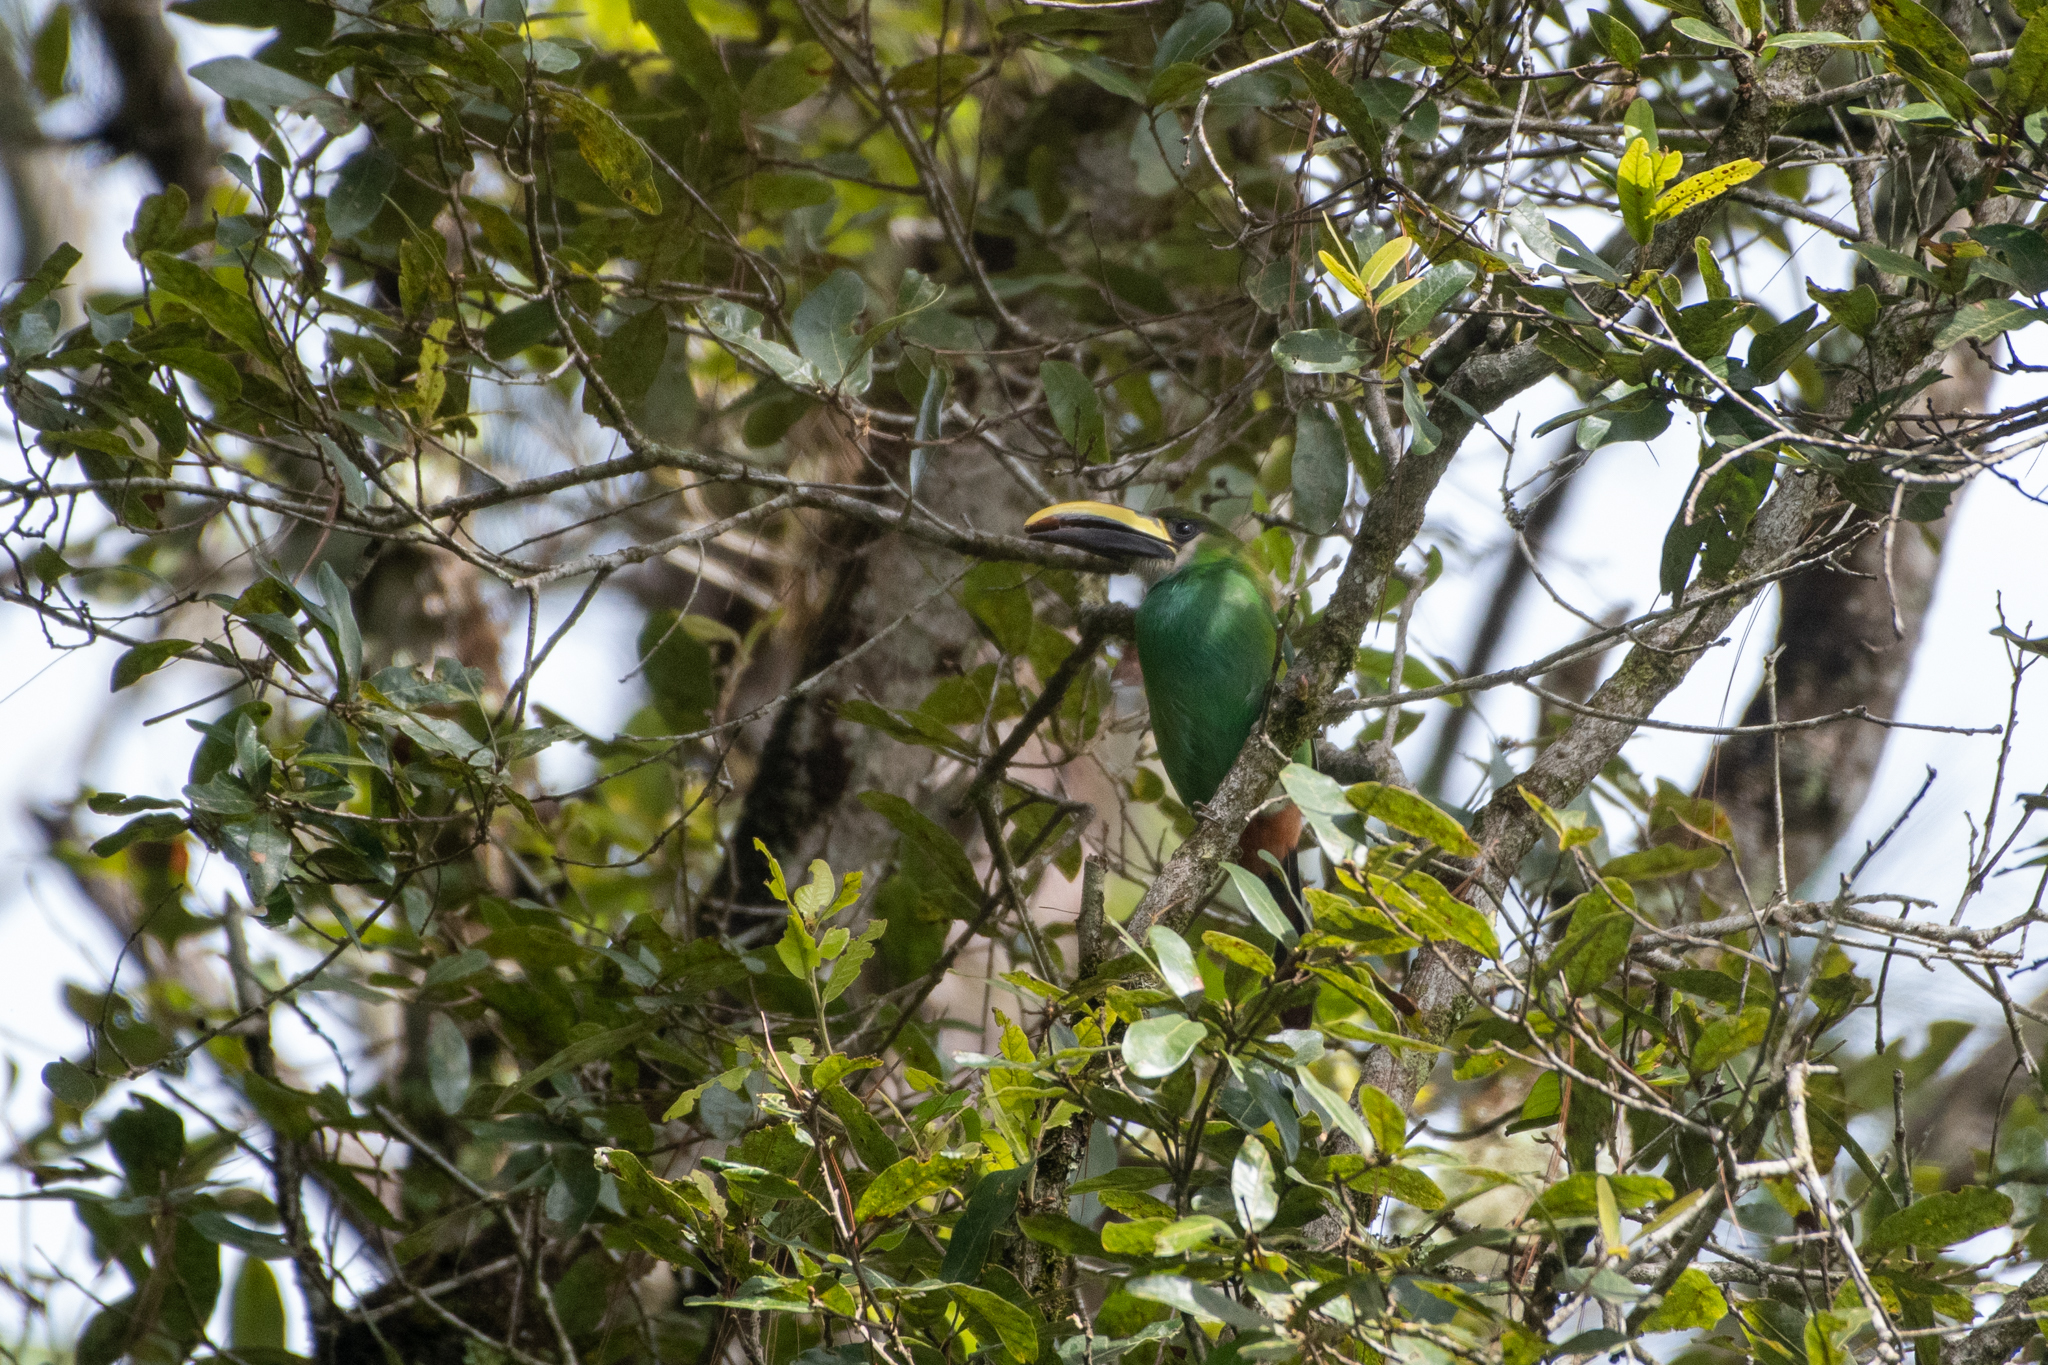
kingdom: Animalia
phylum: Chordata
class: Aves
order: Piciformes
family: Ramphastidae
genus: Aulacorhynchus
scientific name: Aulacorhynchus prasinus
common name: Emerald toucanet
